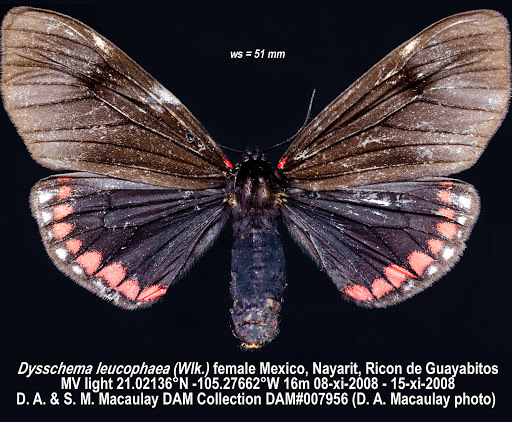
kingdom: Animalia
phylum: Arthropoda
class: Insecta
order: Lepidoptera
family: Erebidae
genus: Dysschema
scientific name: Dysschema leucophaea
